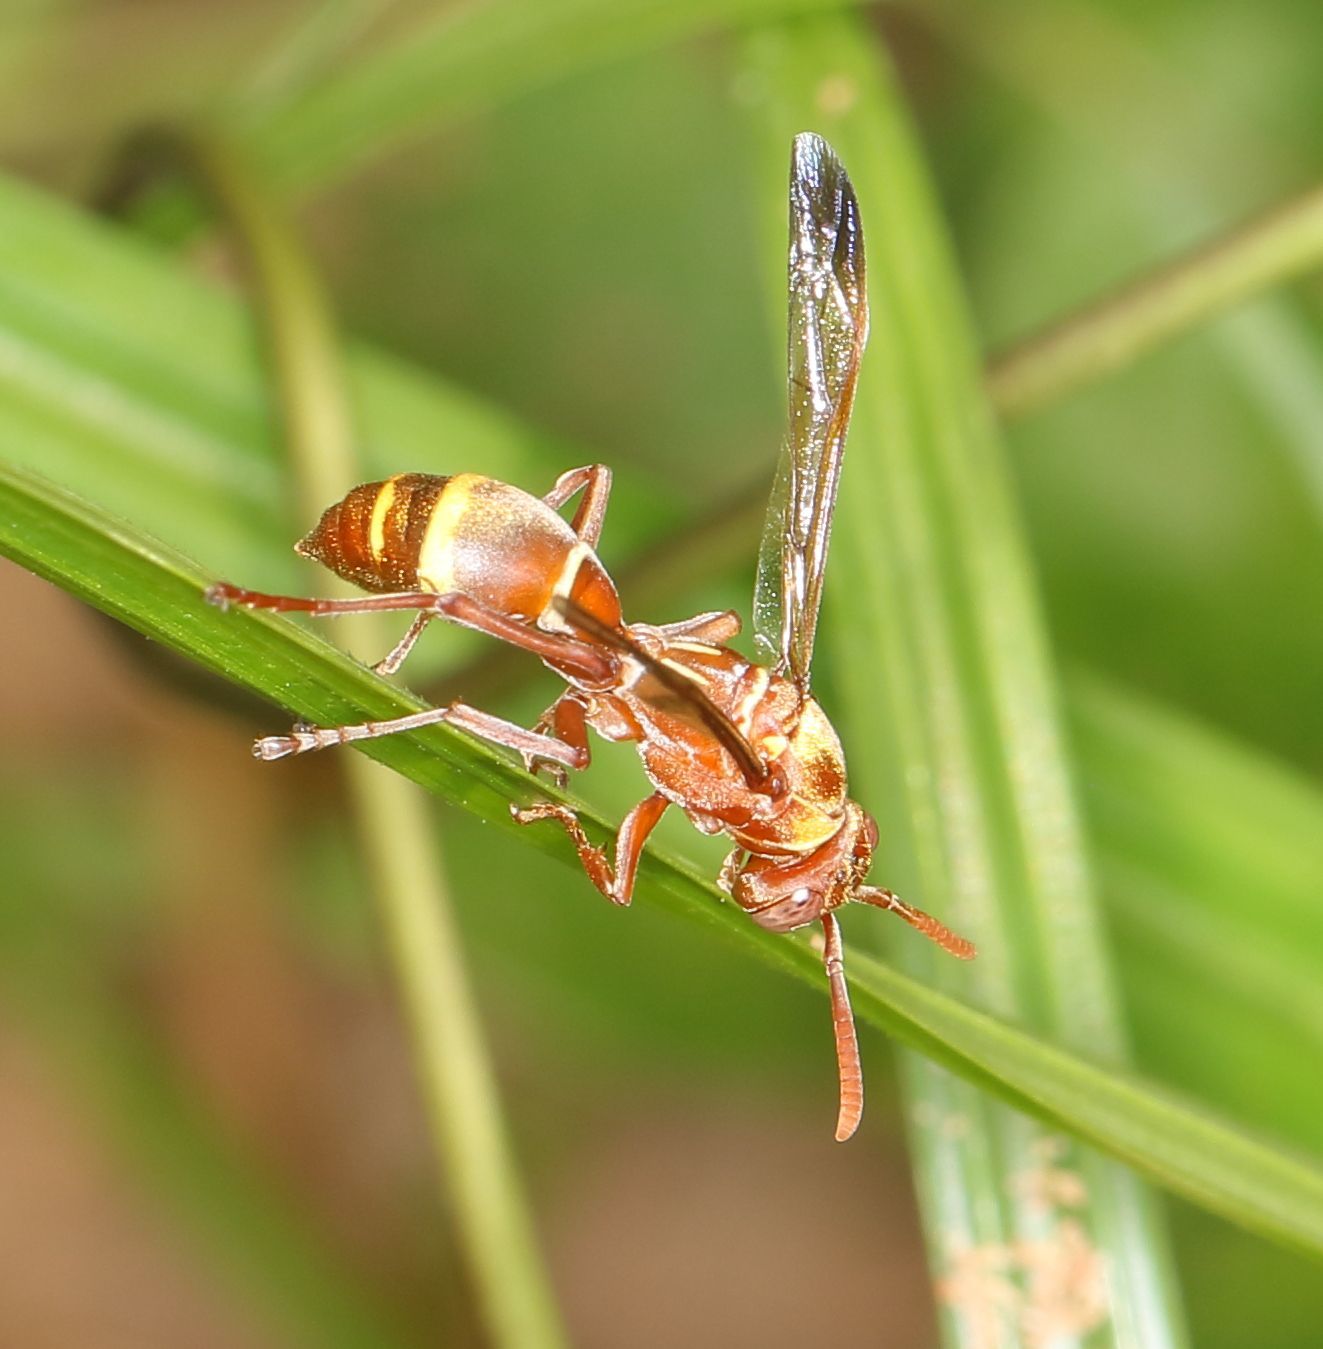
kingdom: Animalia
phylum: Arthropoda
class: Insecta
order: Hymenoptera
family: Eumenidae
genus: Polistes
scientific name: Polistes badius
